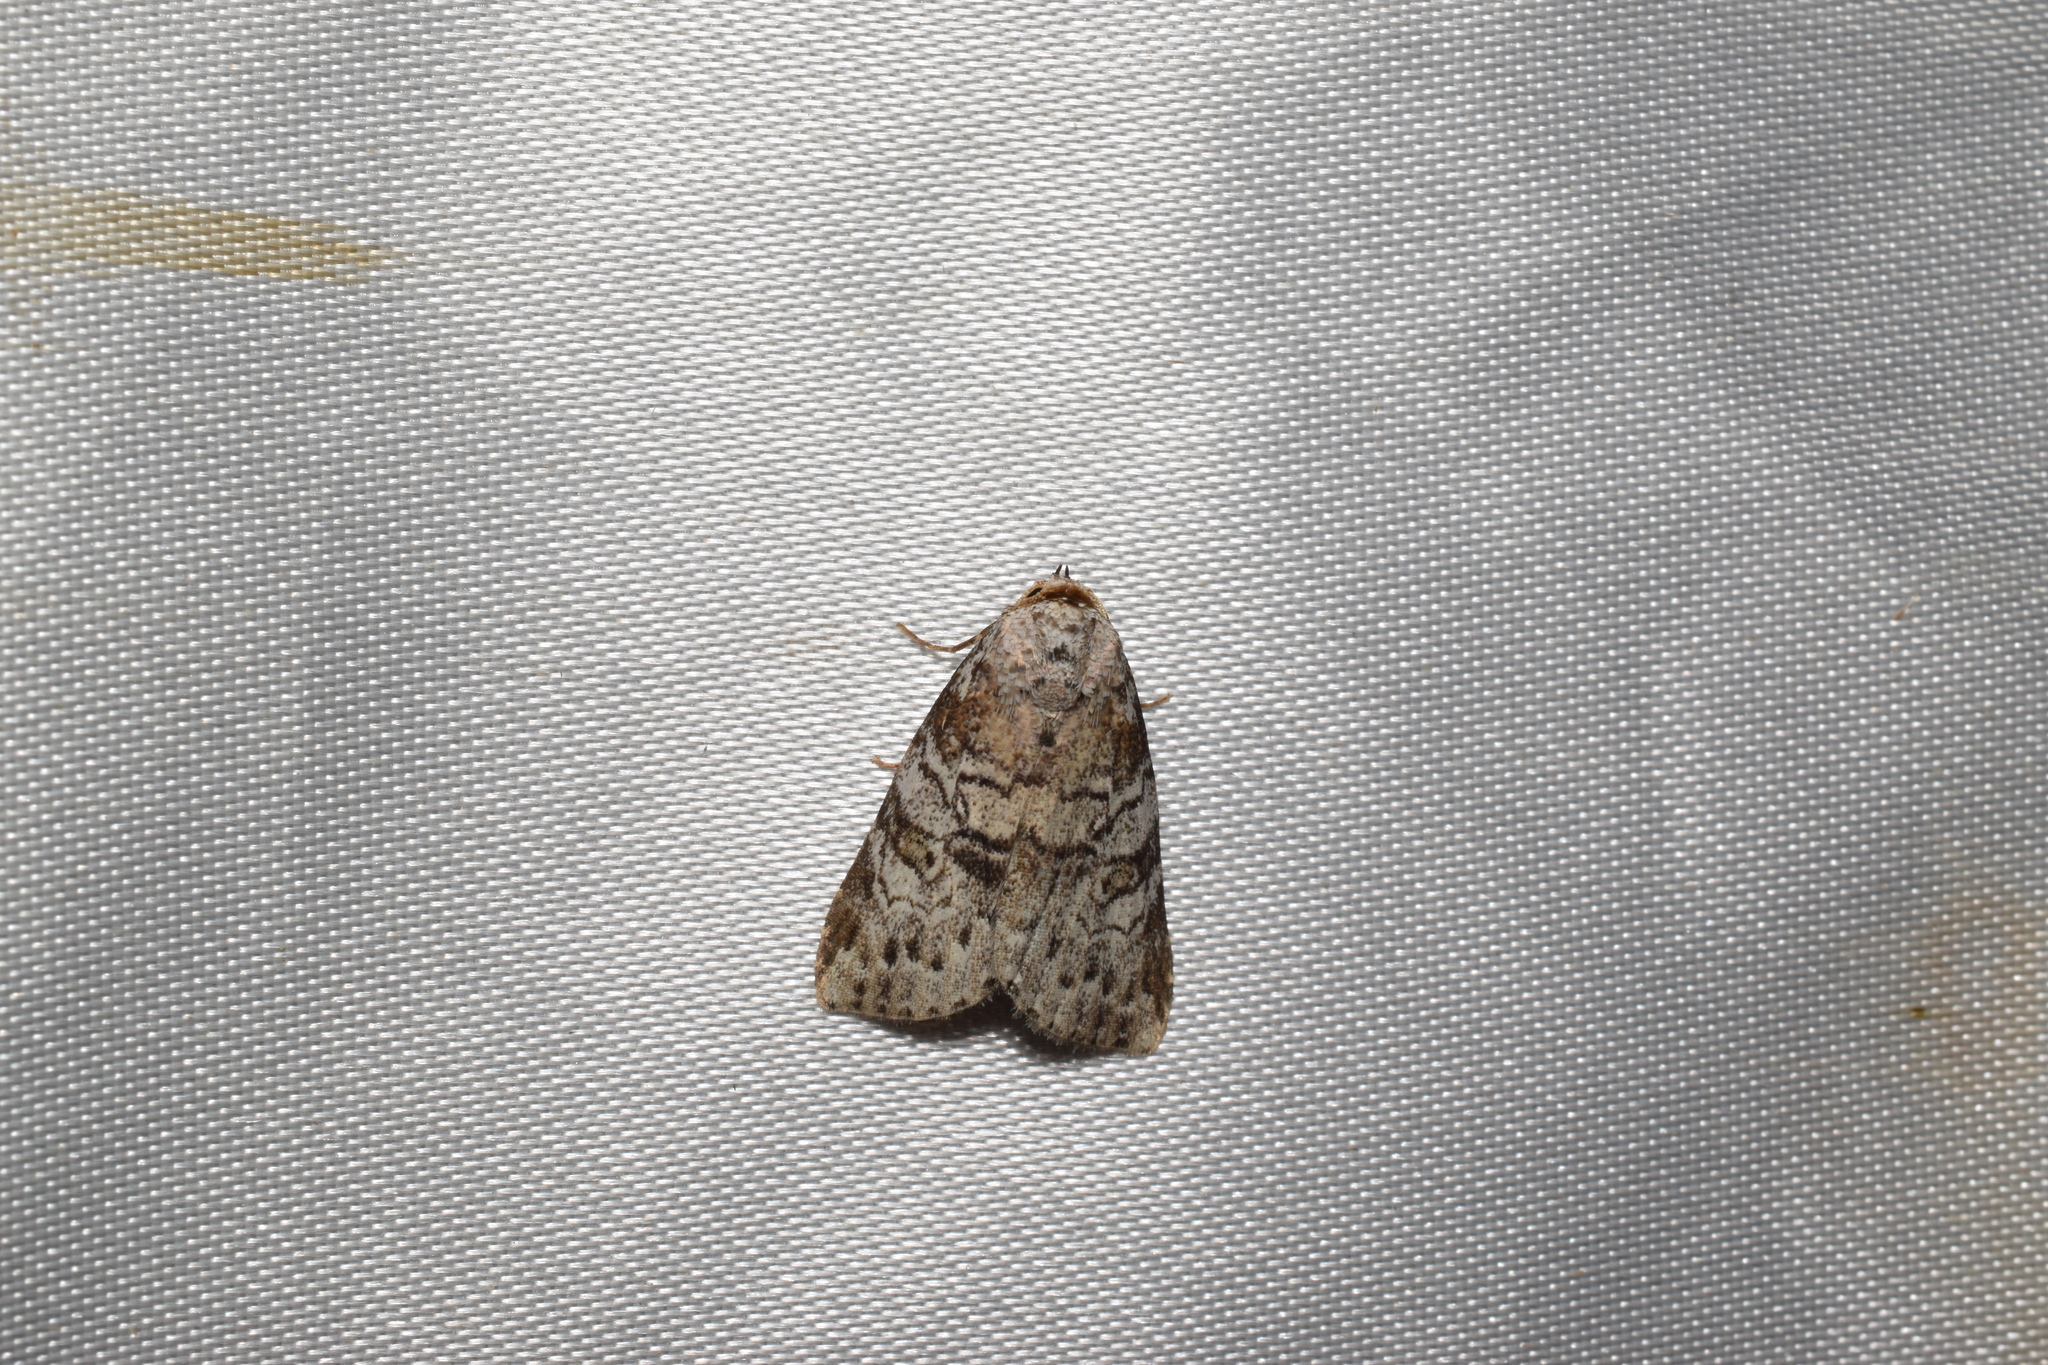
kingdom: Animalia
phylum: Arthropoda
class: Insecta
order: Lepidoptera
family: Erebidae
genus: Chorsia
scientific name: Chorsia mollicula
